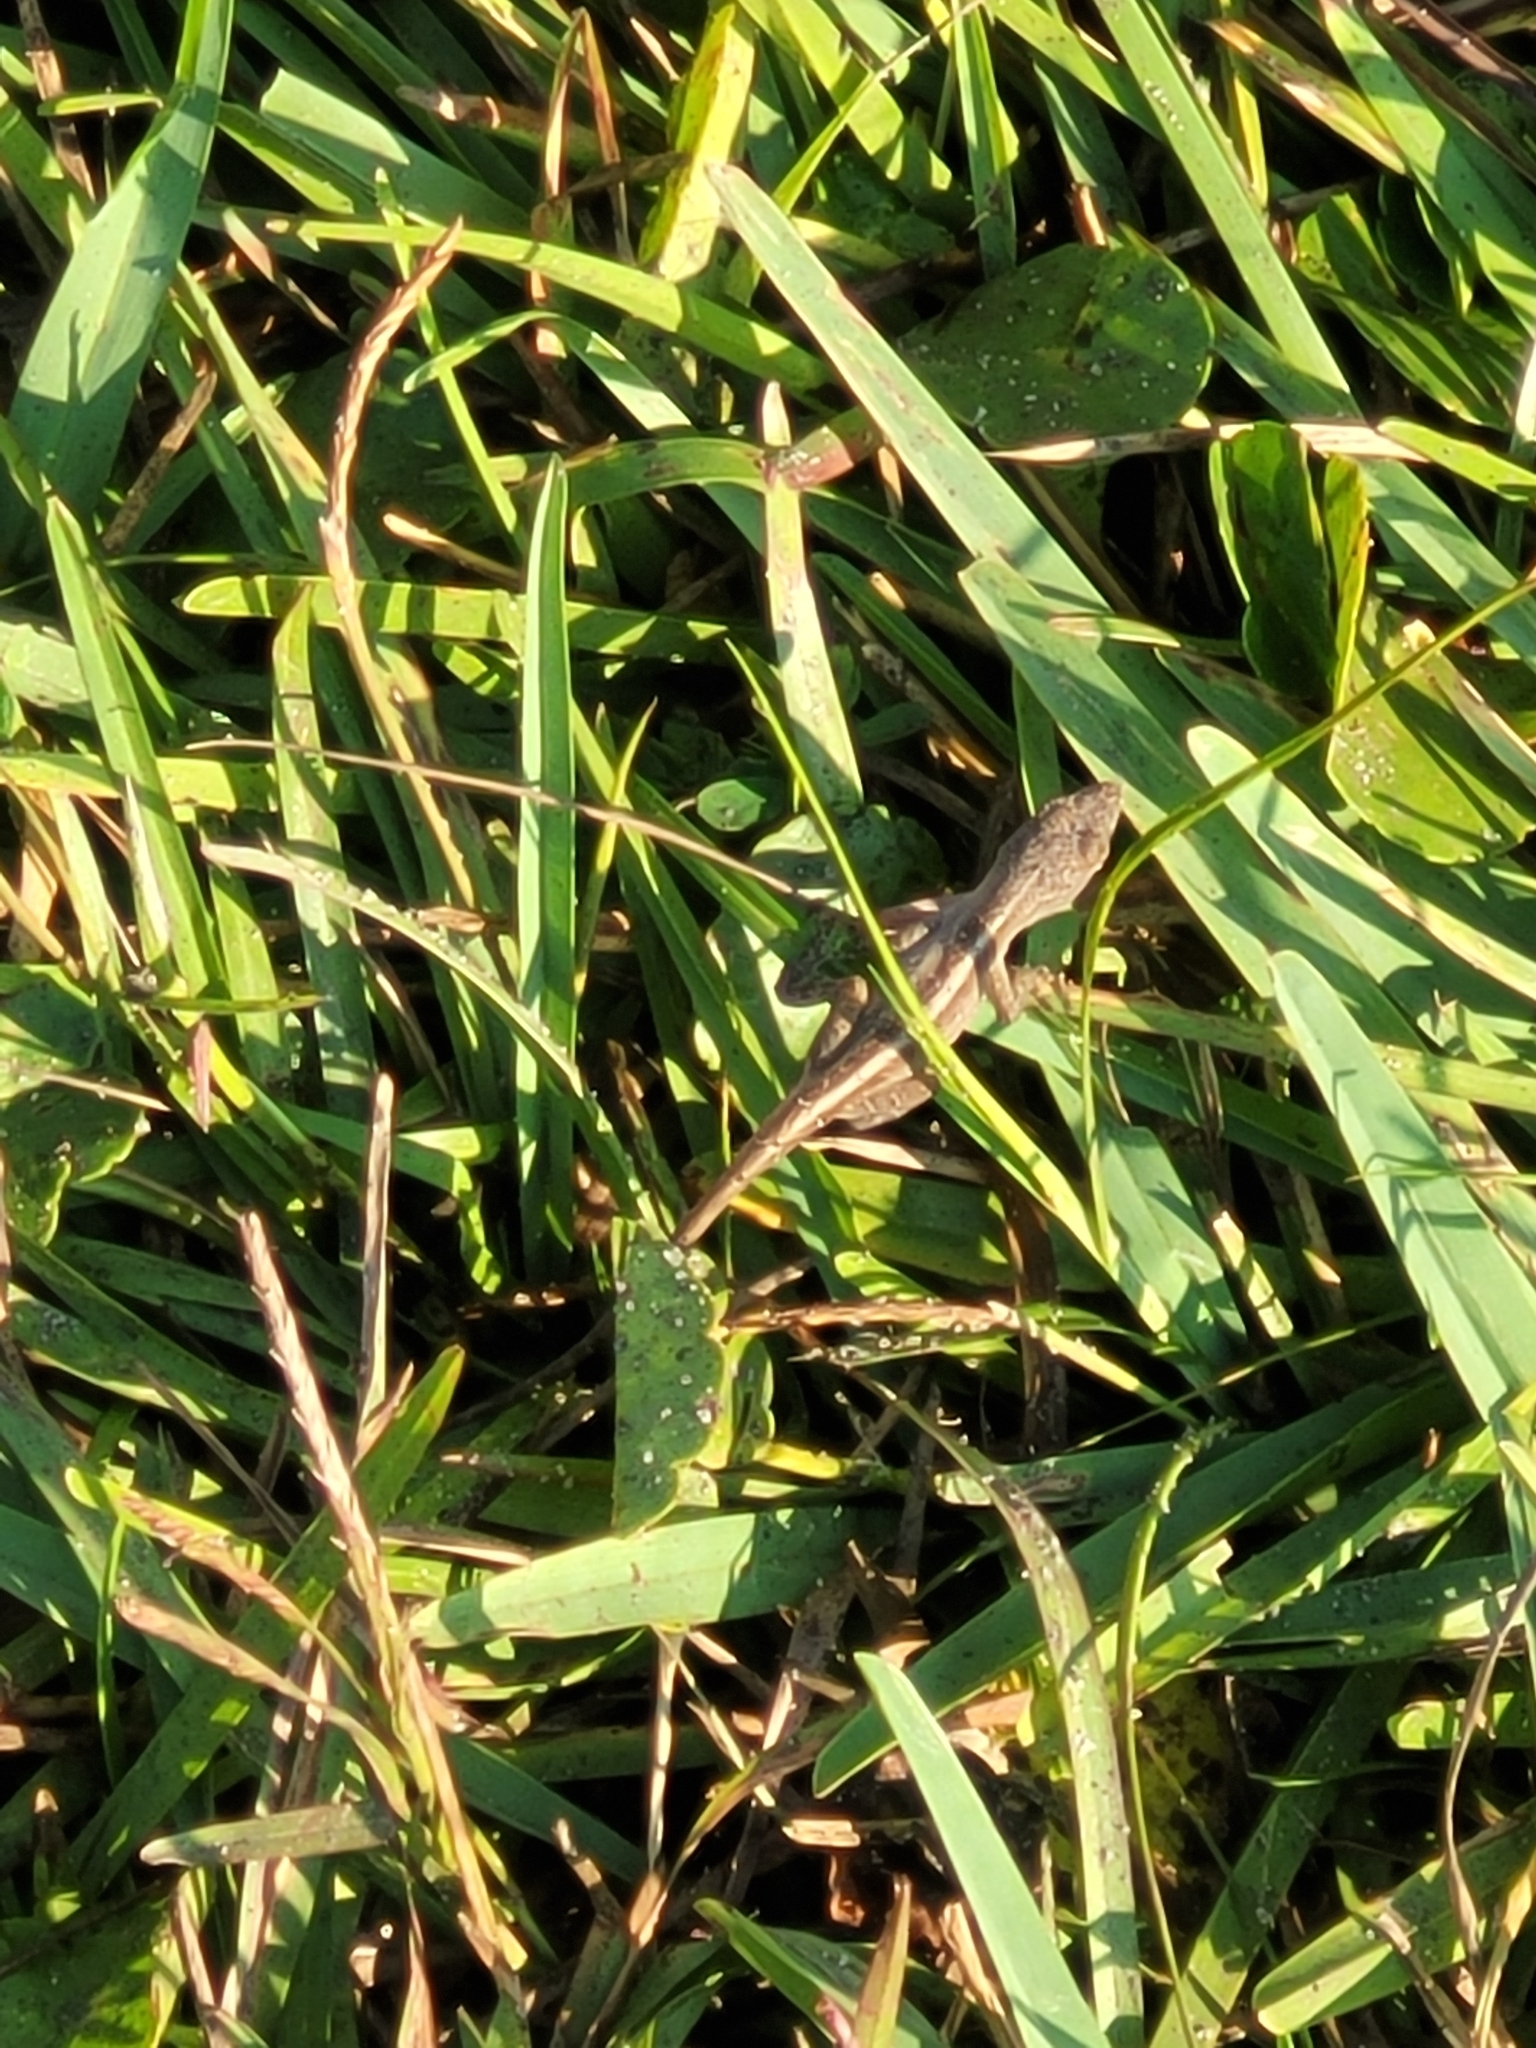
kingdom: Animalia
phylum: Chordata
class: Squamata
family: Dactyloidae
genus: Anolis
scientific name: Anolis sagrei
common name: Brown anole
